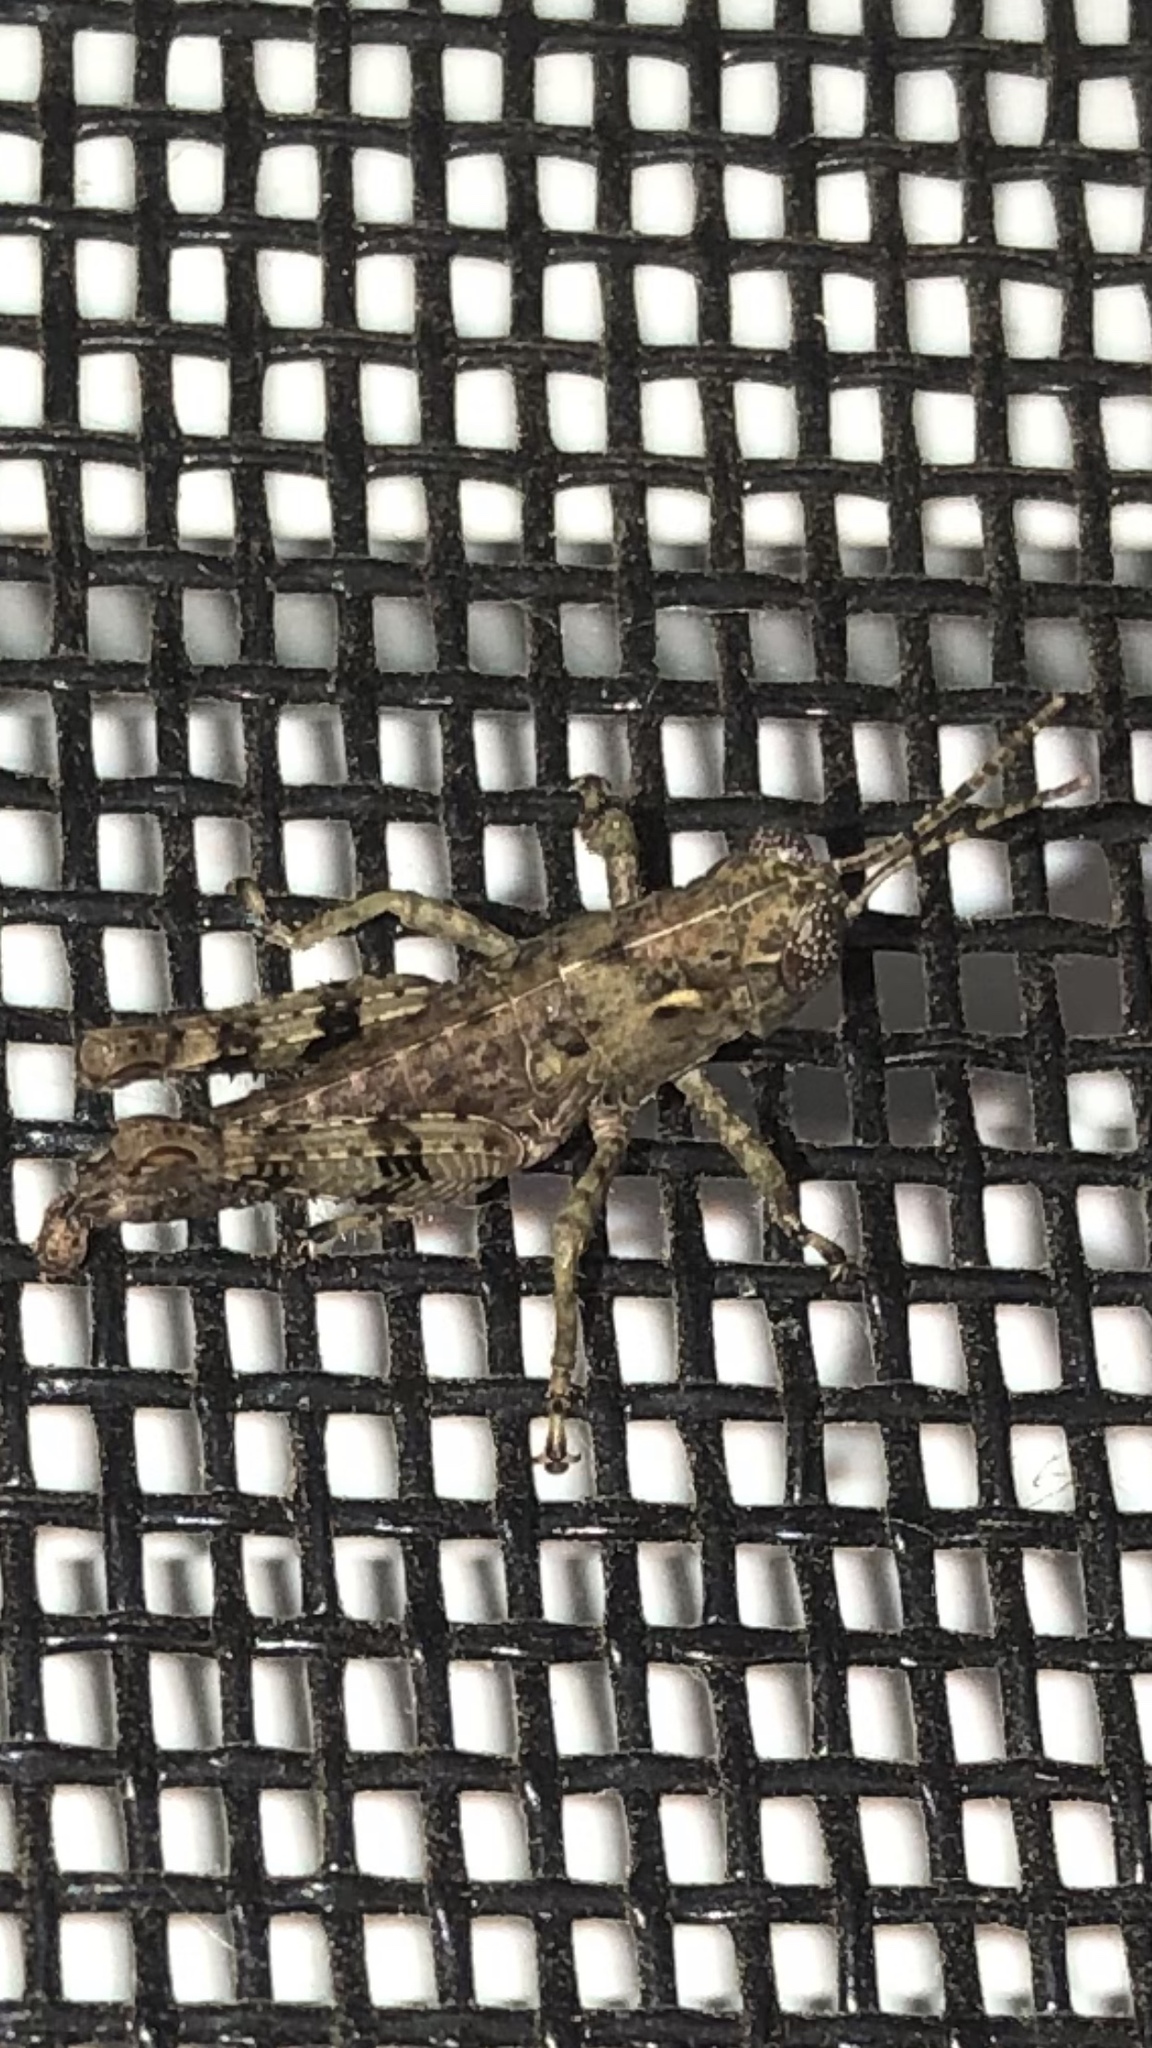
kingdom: Animalia
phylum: Arthropoda
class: Insecta
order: Orthoptera
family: Acrididae
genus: Melanoplus
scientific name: Melanoplus punctulatus
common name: Pine-tree spur-throat grasshopper
